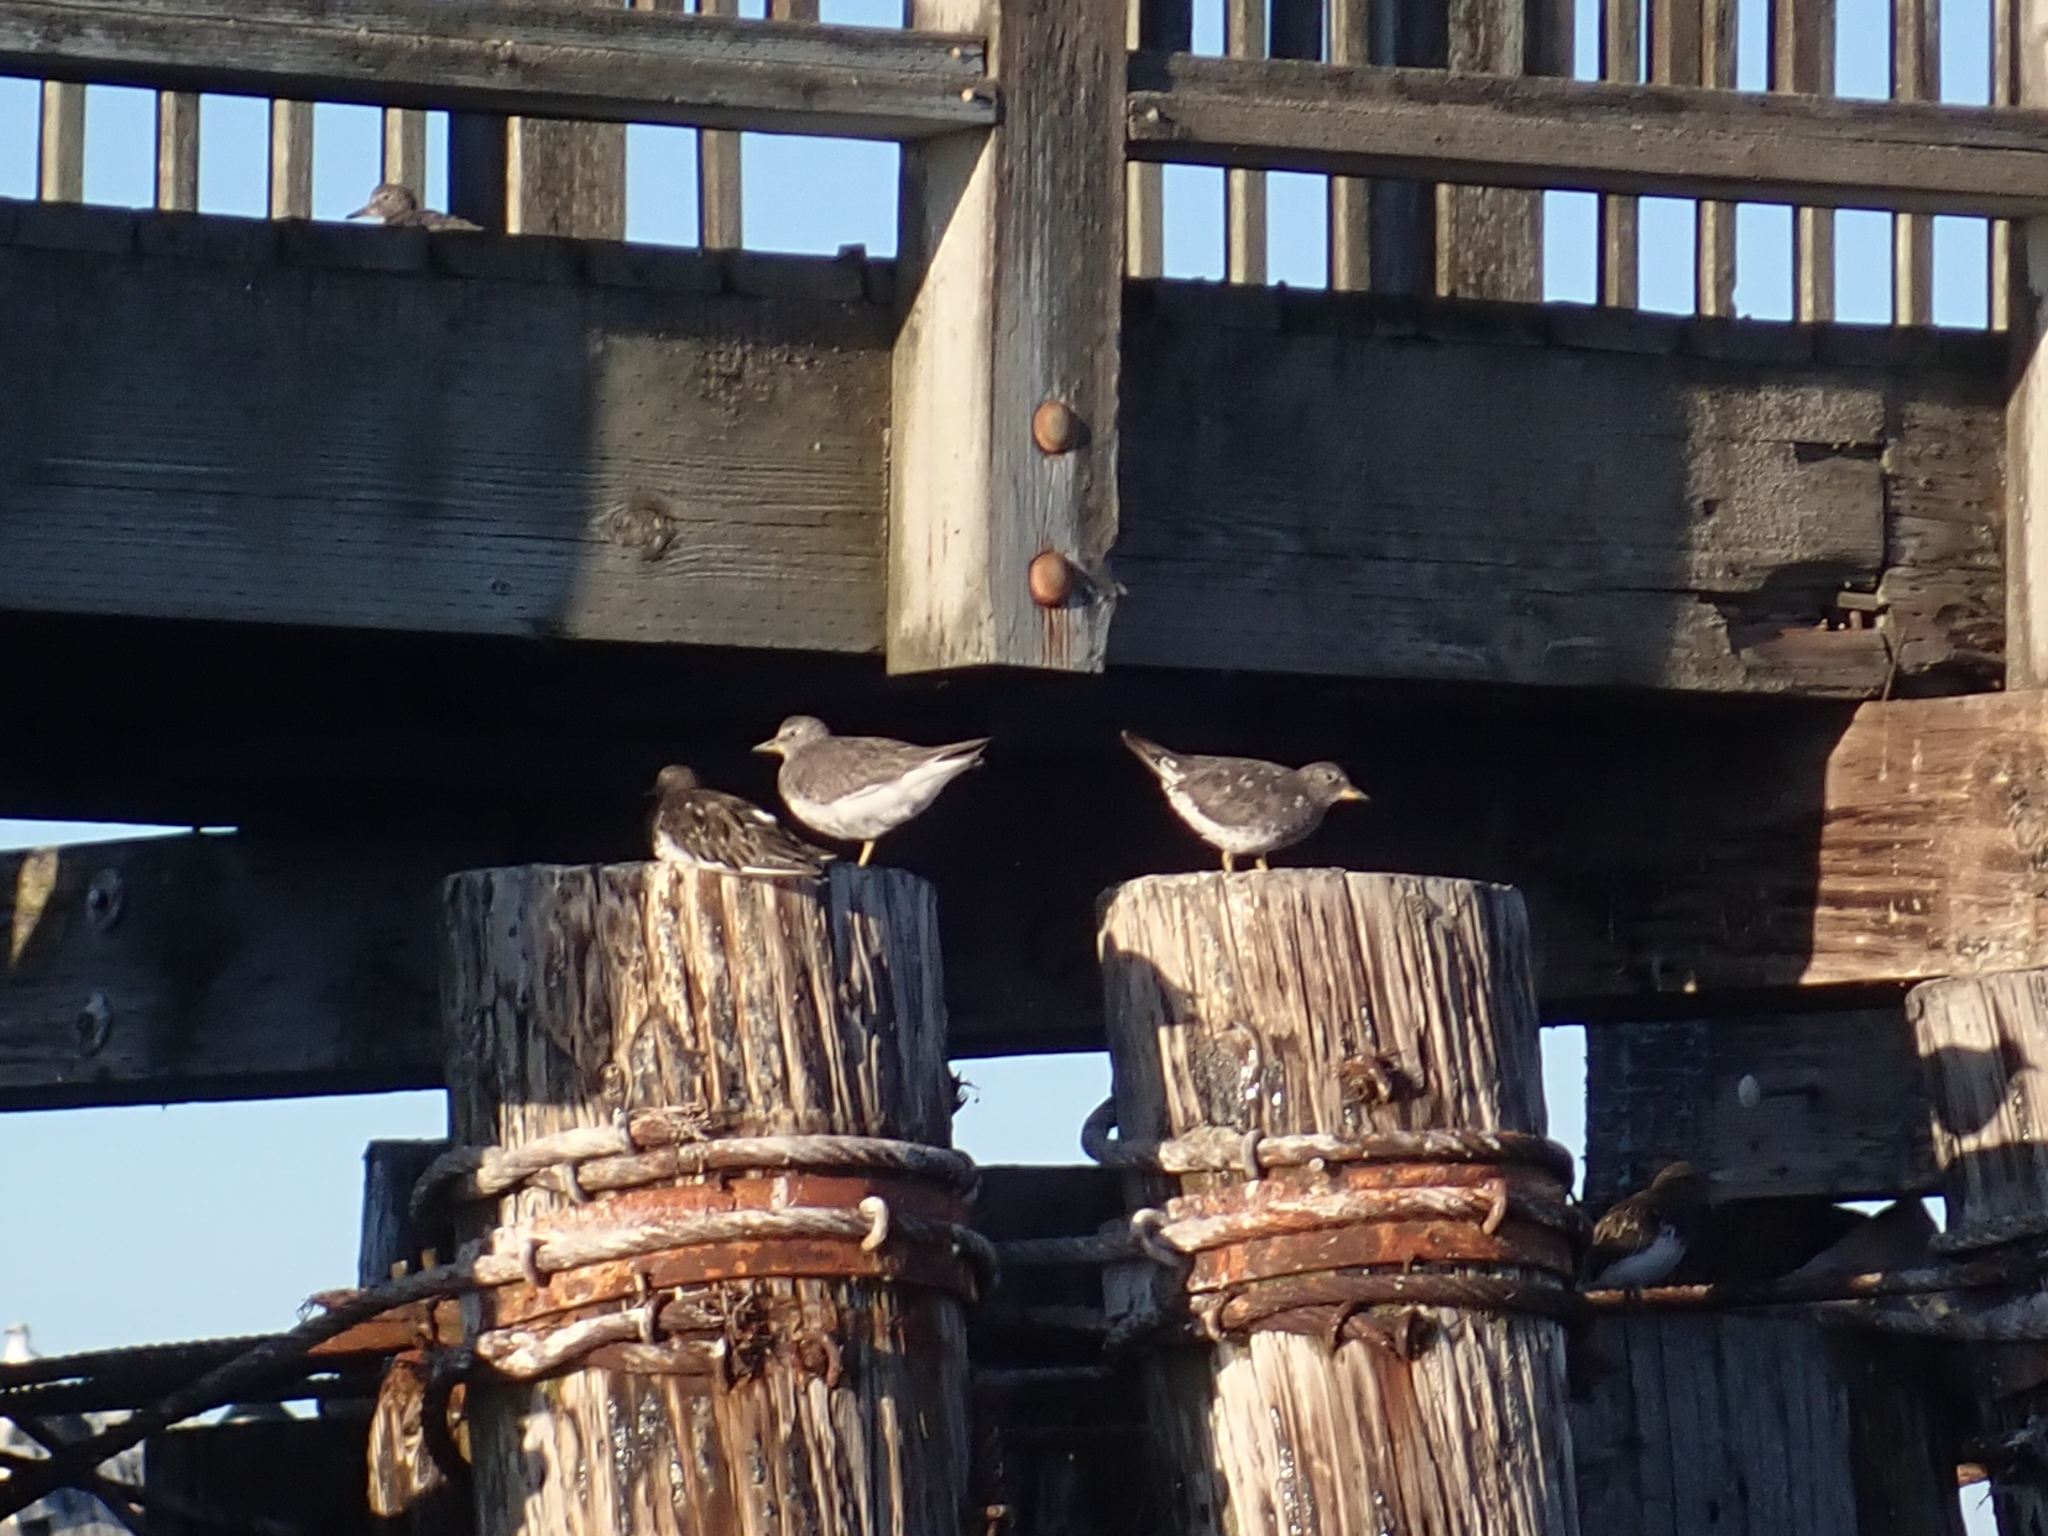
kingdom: Animalia
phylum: Chordata
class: Aves
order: Charadriiformes
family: Scolopacidae
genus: Calidris
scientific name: Calidris virgata
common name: Surfbird
